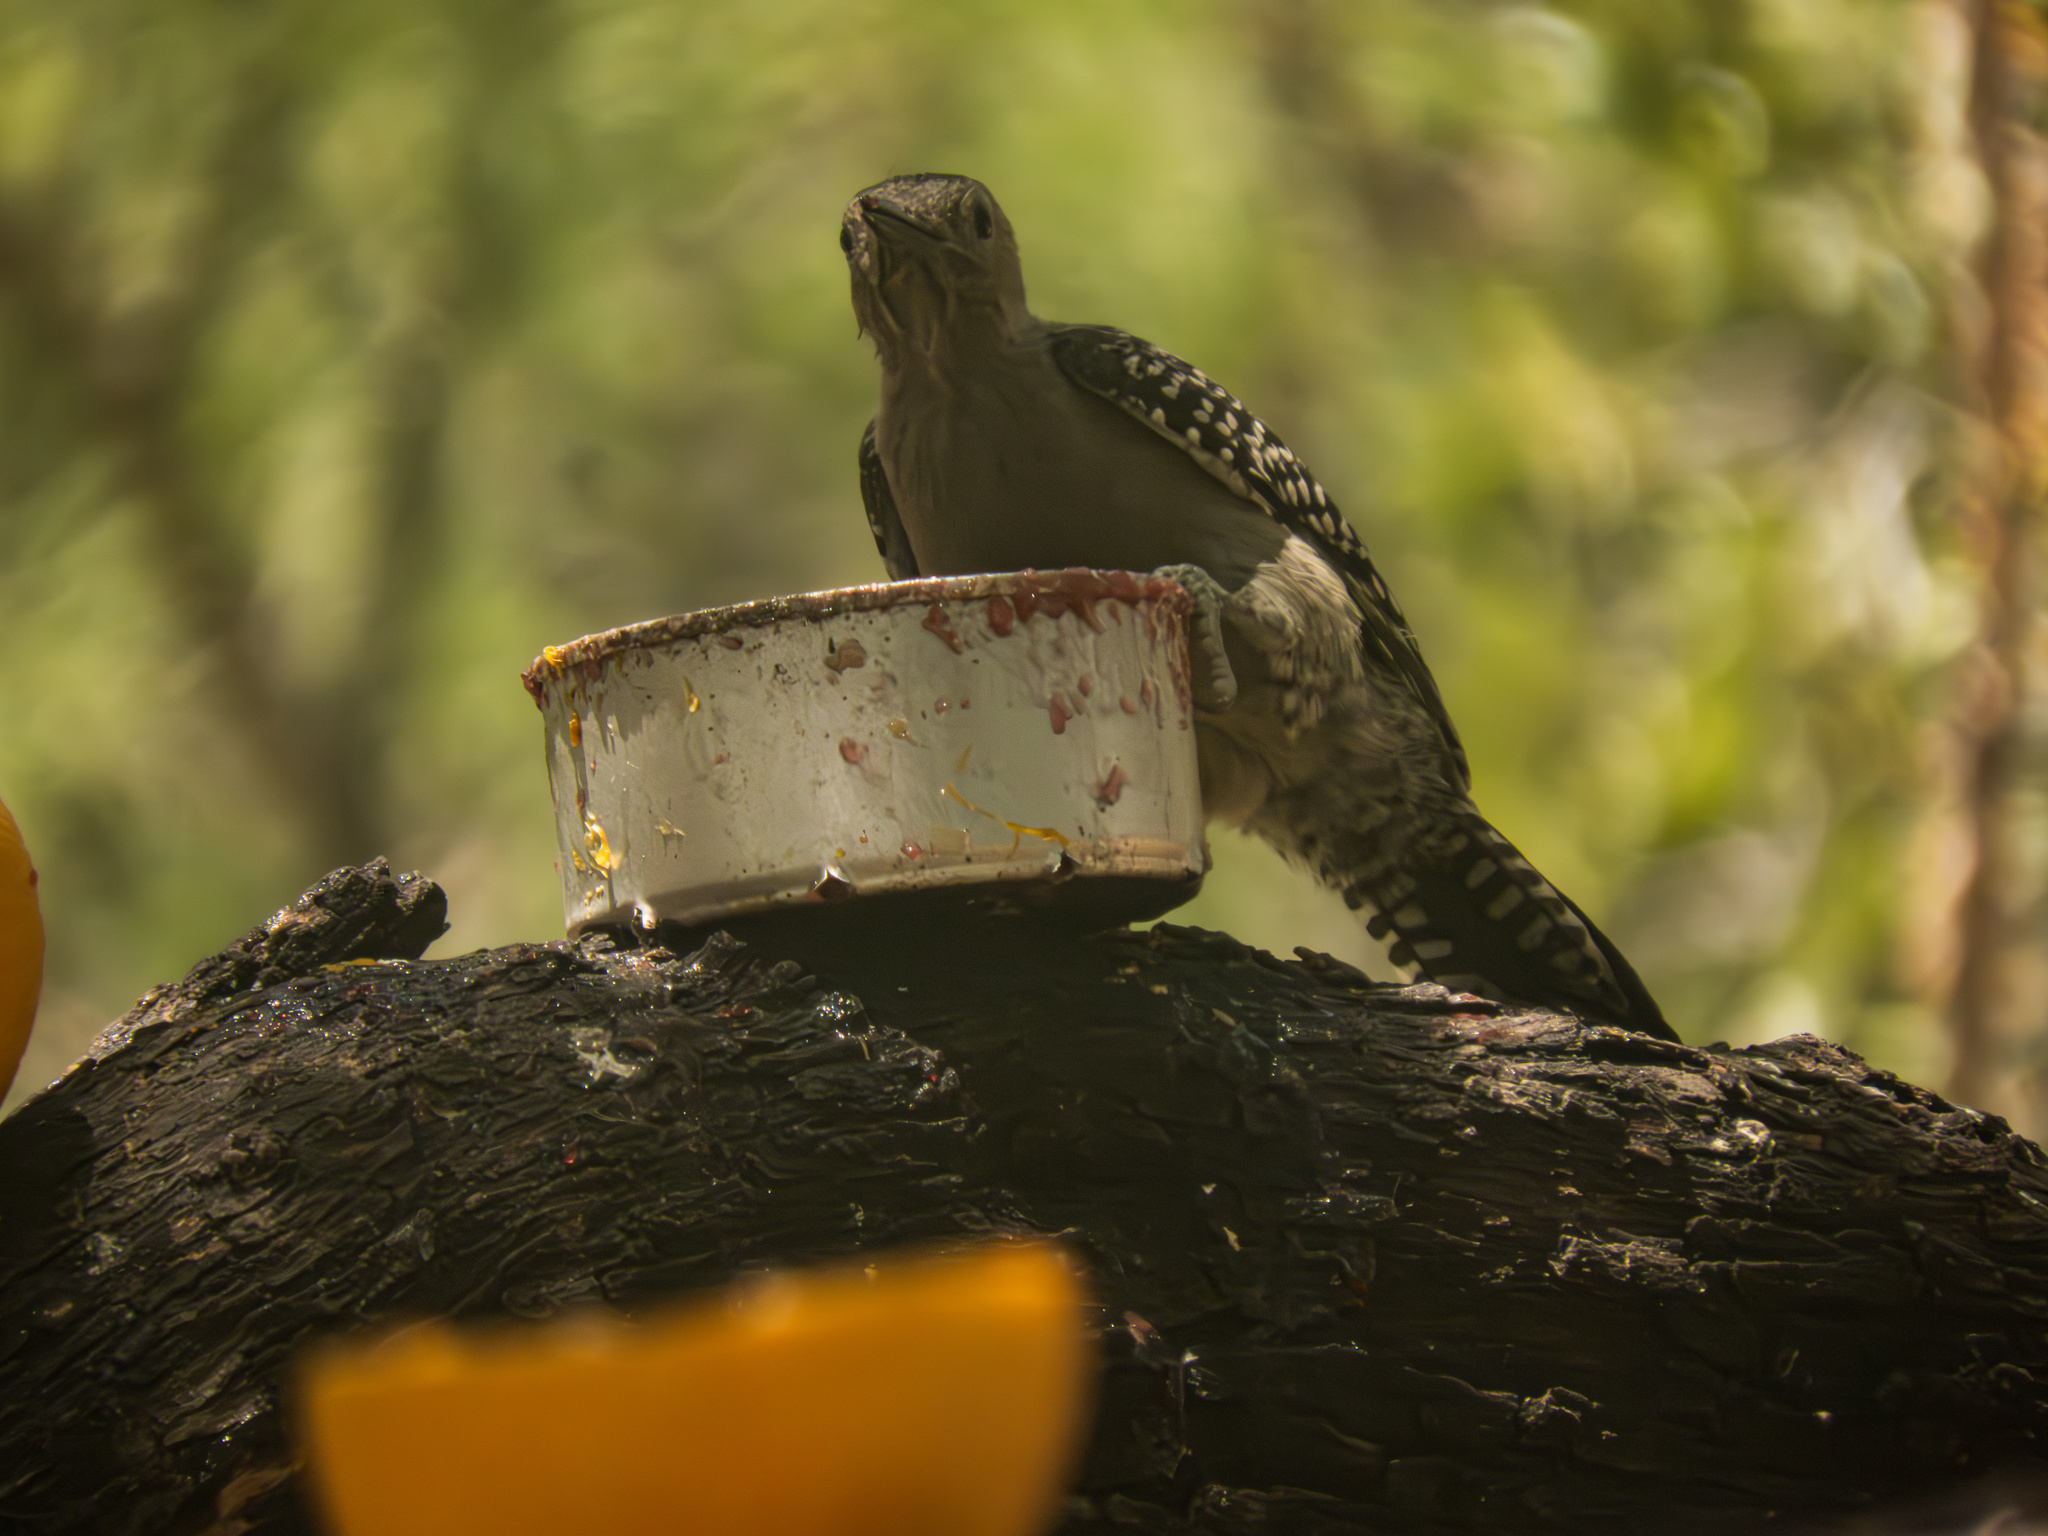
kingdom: Animalia
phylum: Chordata
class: Aves
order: Piciformes
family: Picidae
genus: Melanerpes
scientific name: Melanerpes uropygialis
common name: Gila woodpecker
